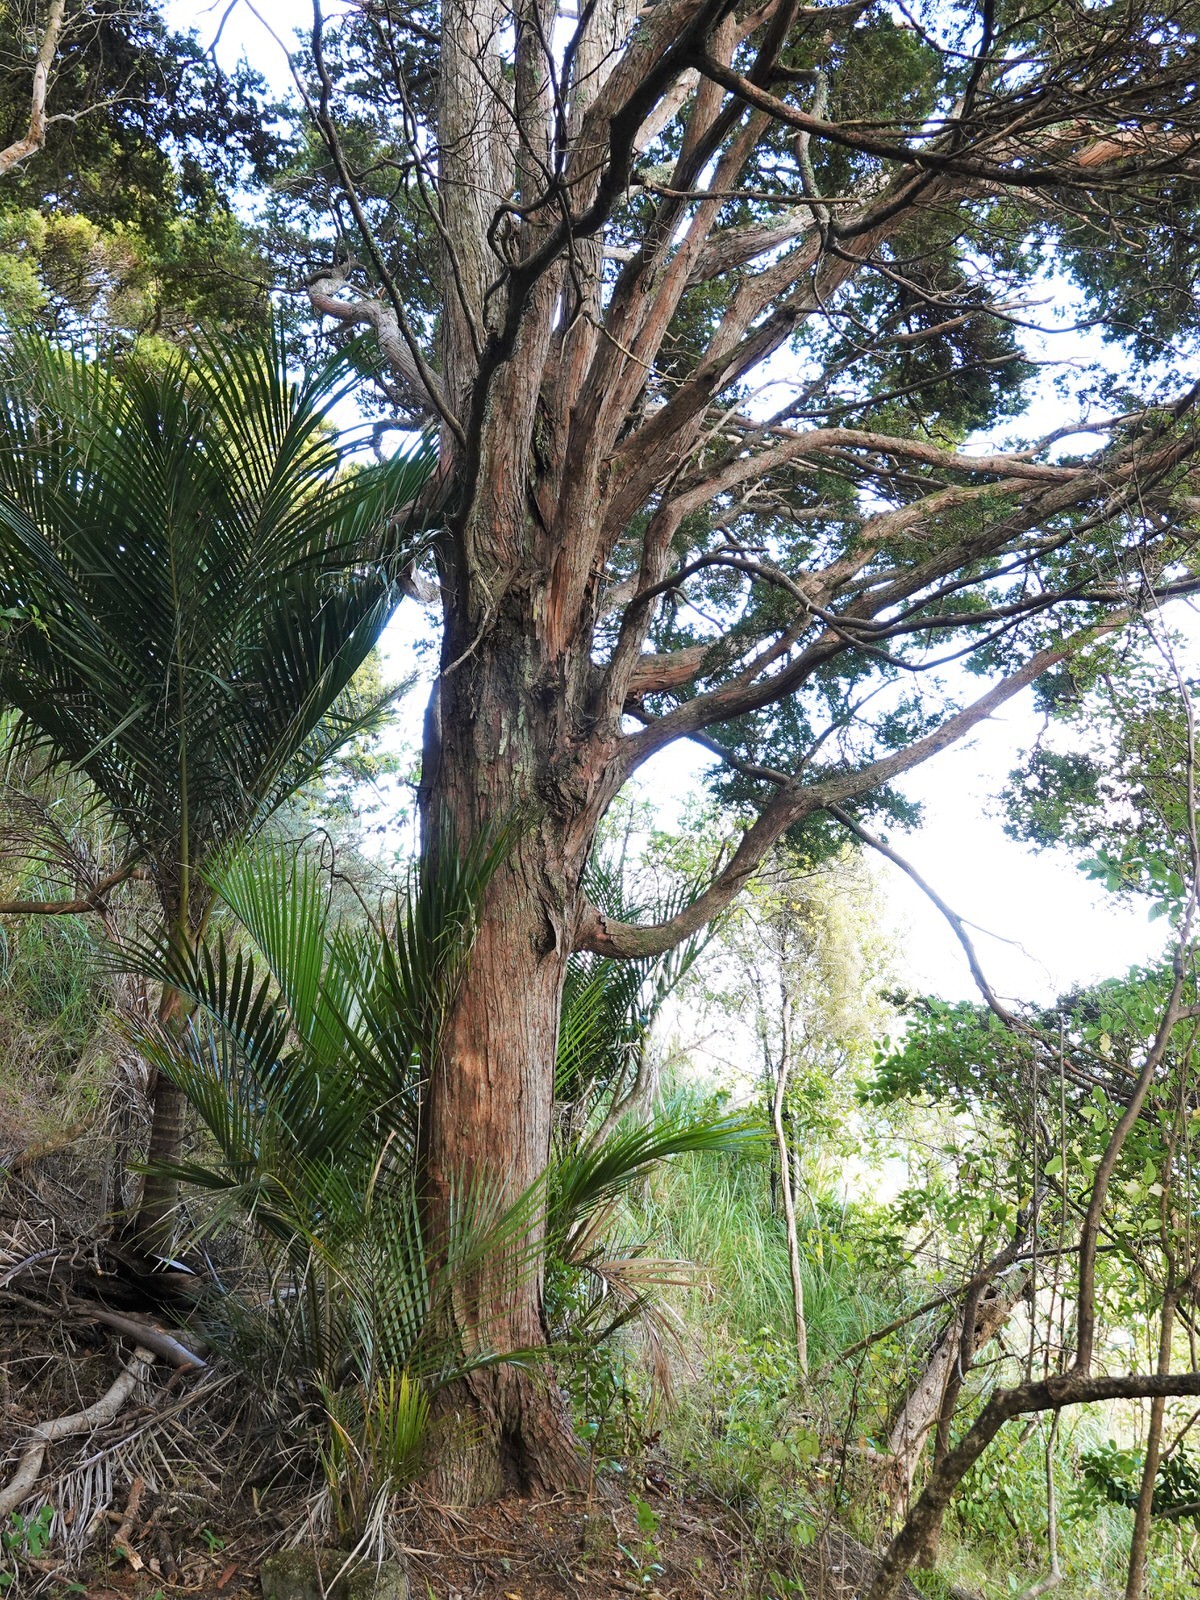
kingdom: Plantae
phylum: Tracheophyta
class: Pinopsida
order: Pinales
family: Podocarpaceae
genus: Podocarpus
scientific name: Podocarpus totara
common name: Totara
